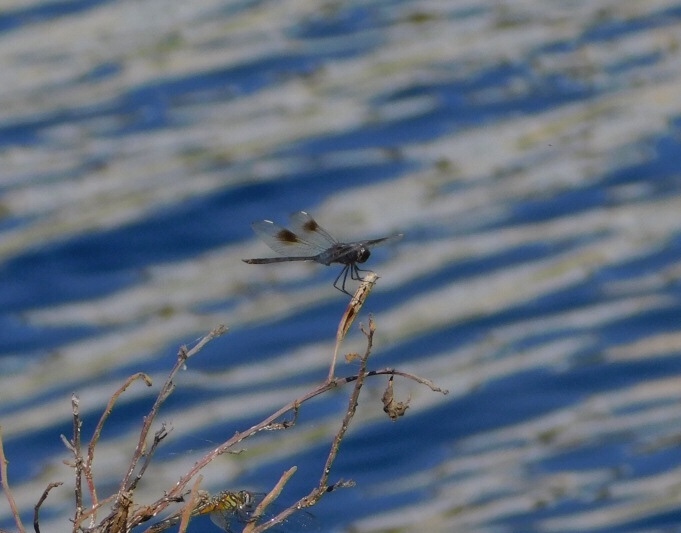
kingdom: Animalia
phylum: Arthropoda
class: Insecta
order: Odonata
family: Libellulidae
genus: Brachymesia
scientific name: Brachymesia gravida
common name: Four-spotted pennant
